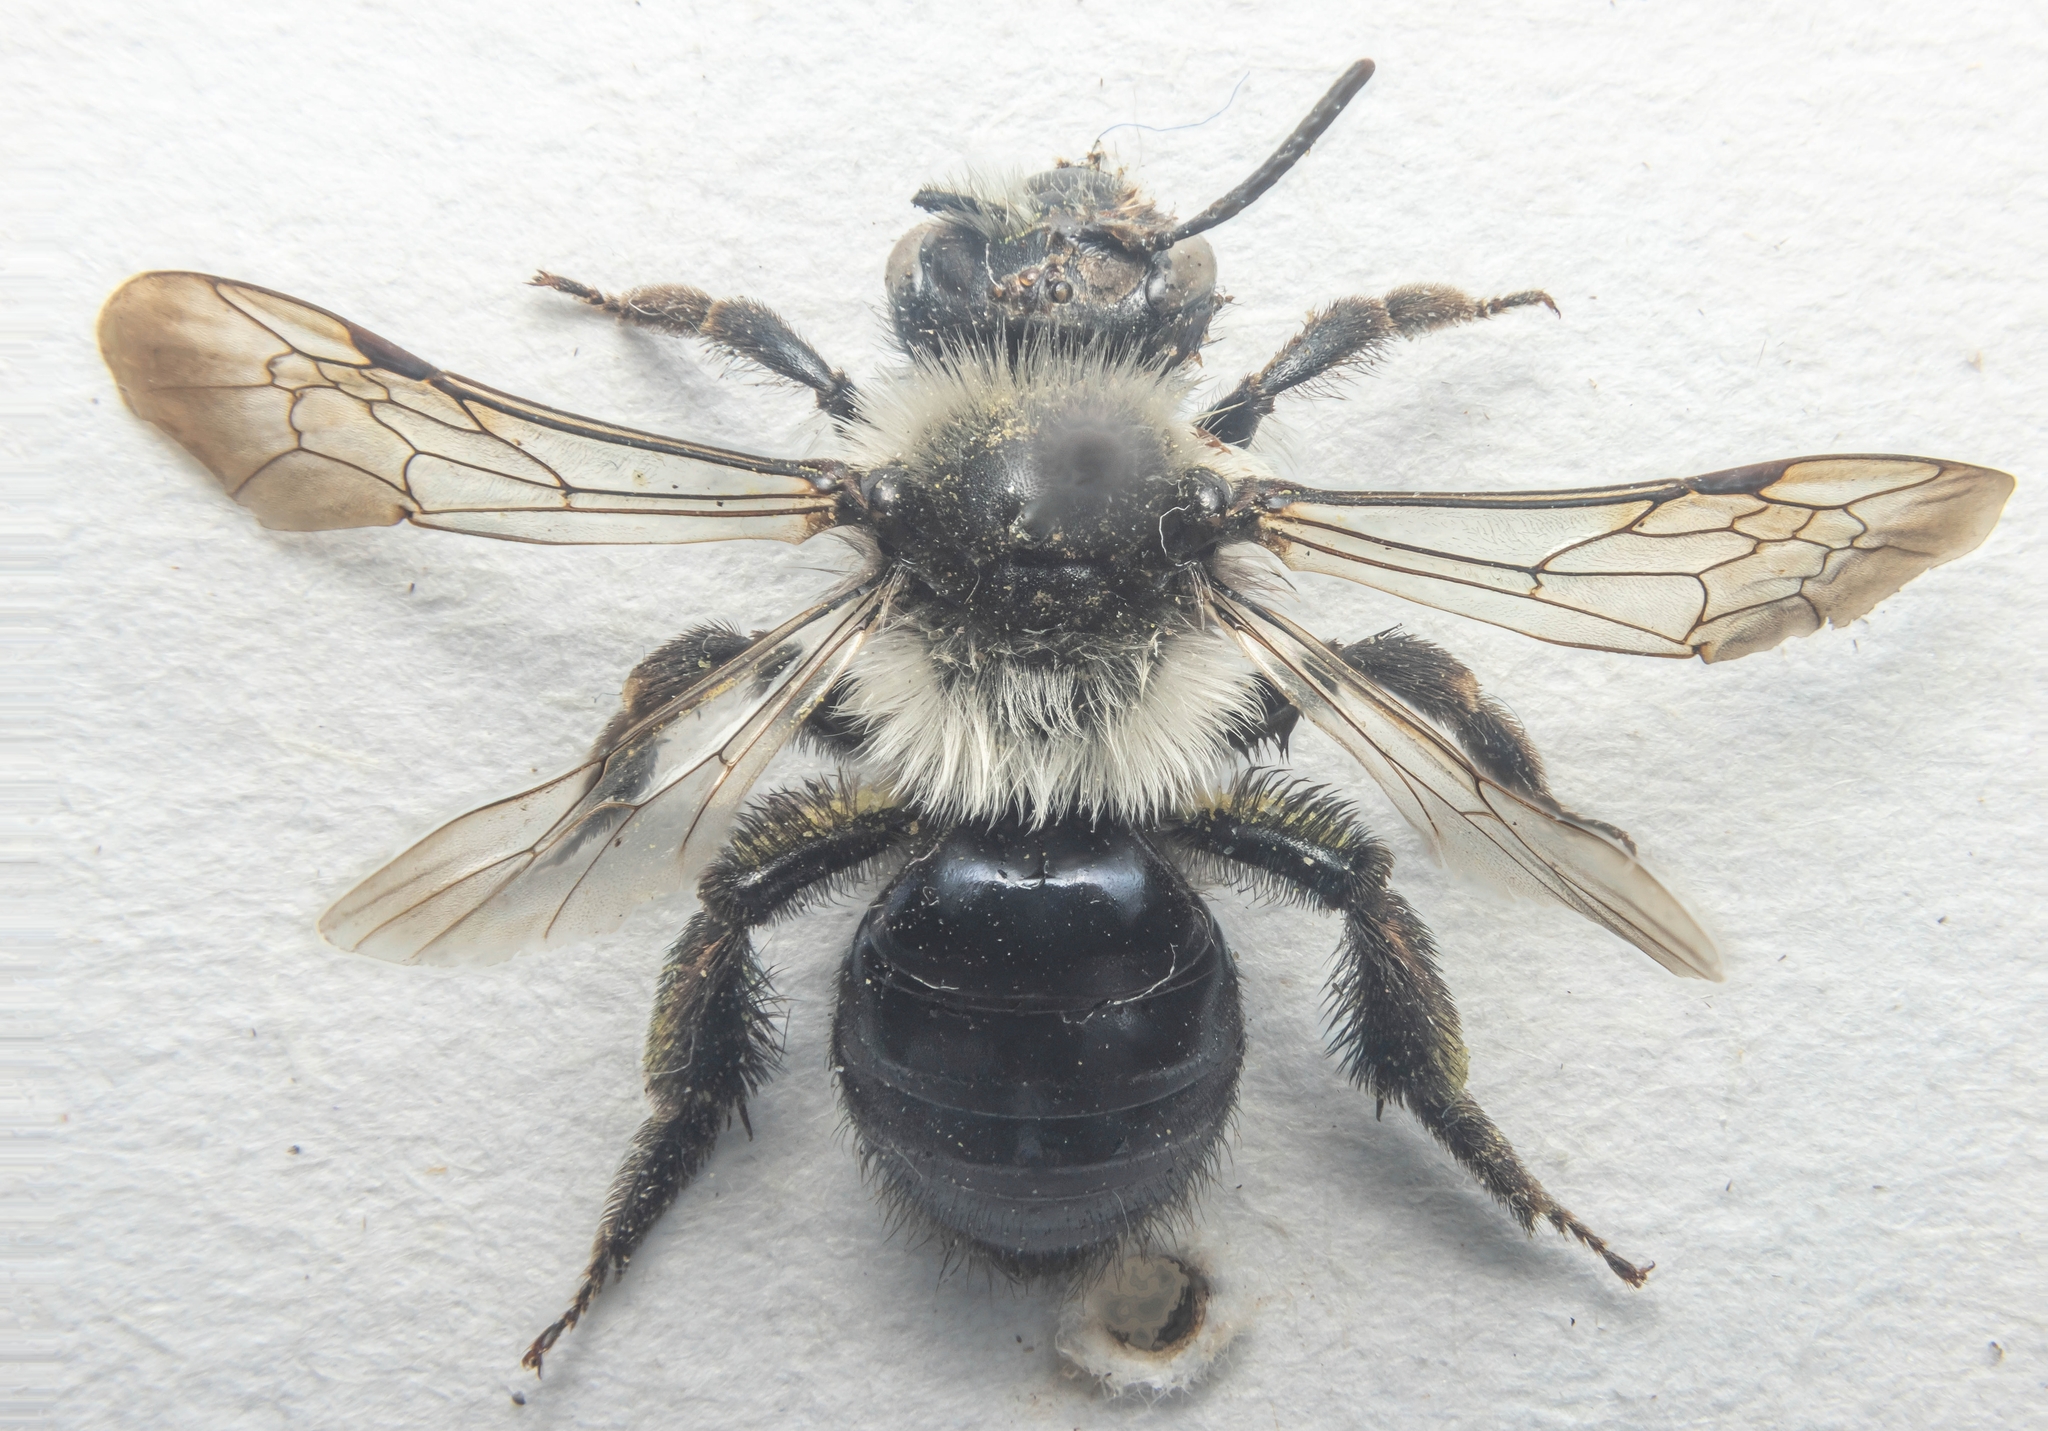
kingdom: Animalia
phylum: Arthropoda
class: Insecta
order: Hymenoptera
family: Andrenidae
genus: Andrena
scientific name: Andrena cineraria
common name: Ashy mining bee
